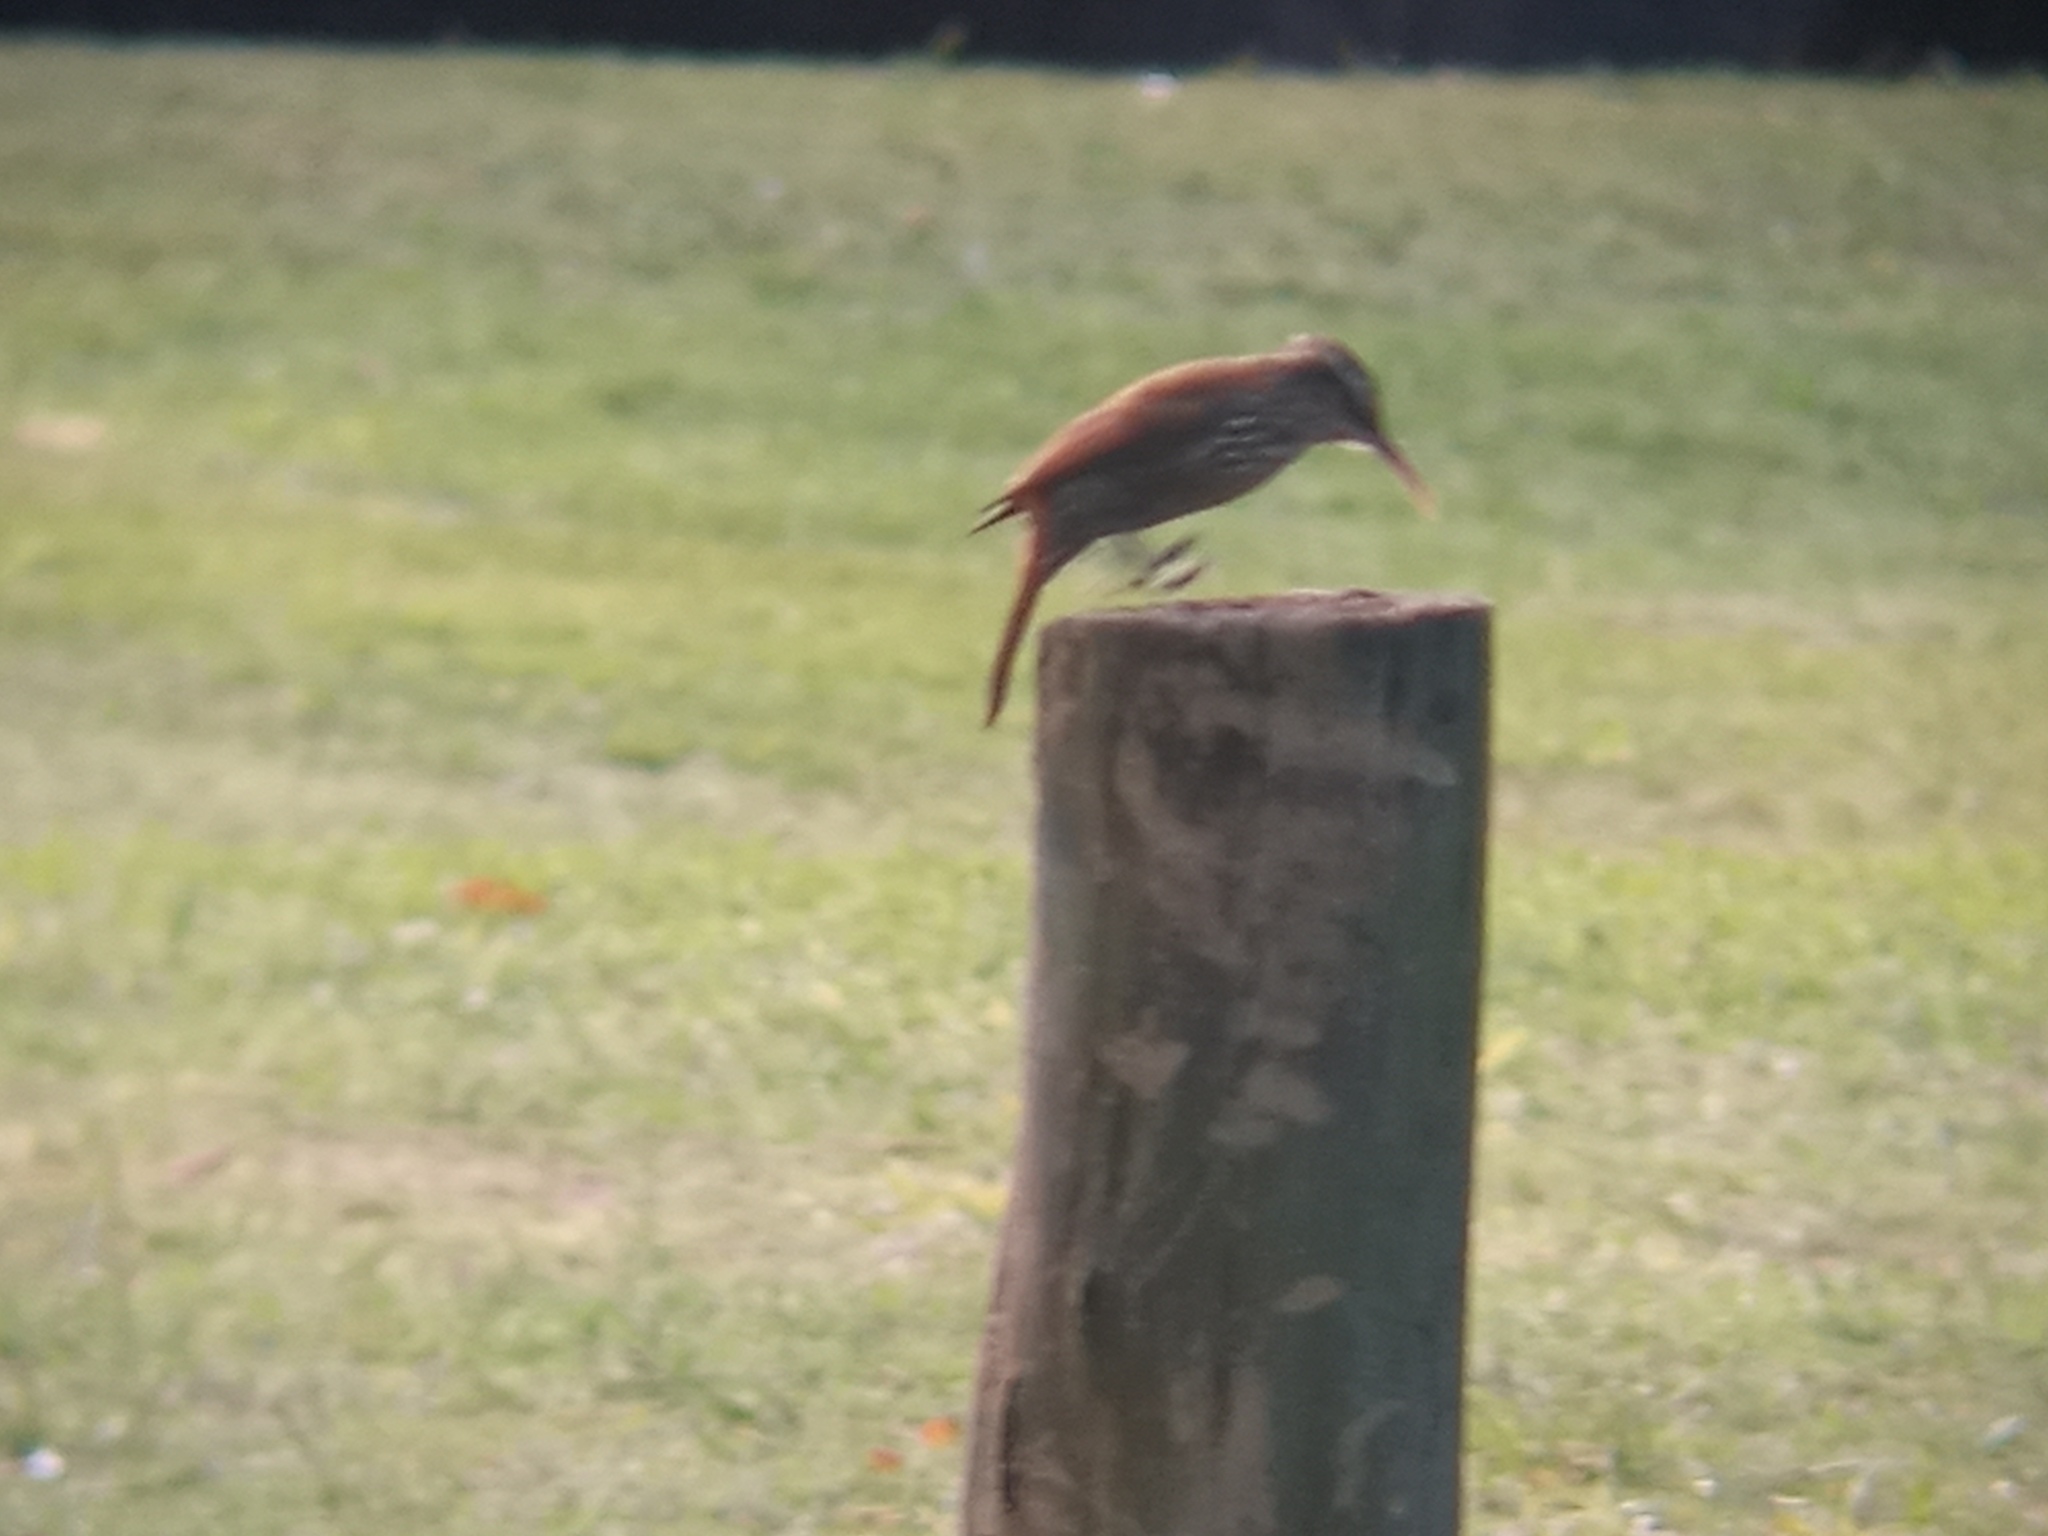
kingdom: Animalia
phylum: Chordata
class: Aves
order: Passeriformes
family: Furnariidae
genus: Lepidocolaptes
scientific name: Lepidocolaptes angustirostris
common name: Narrow-billed woodcreeper
